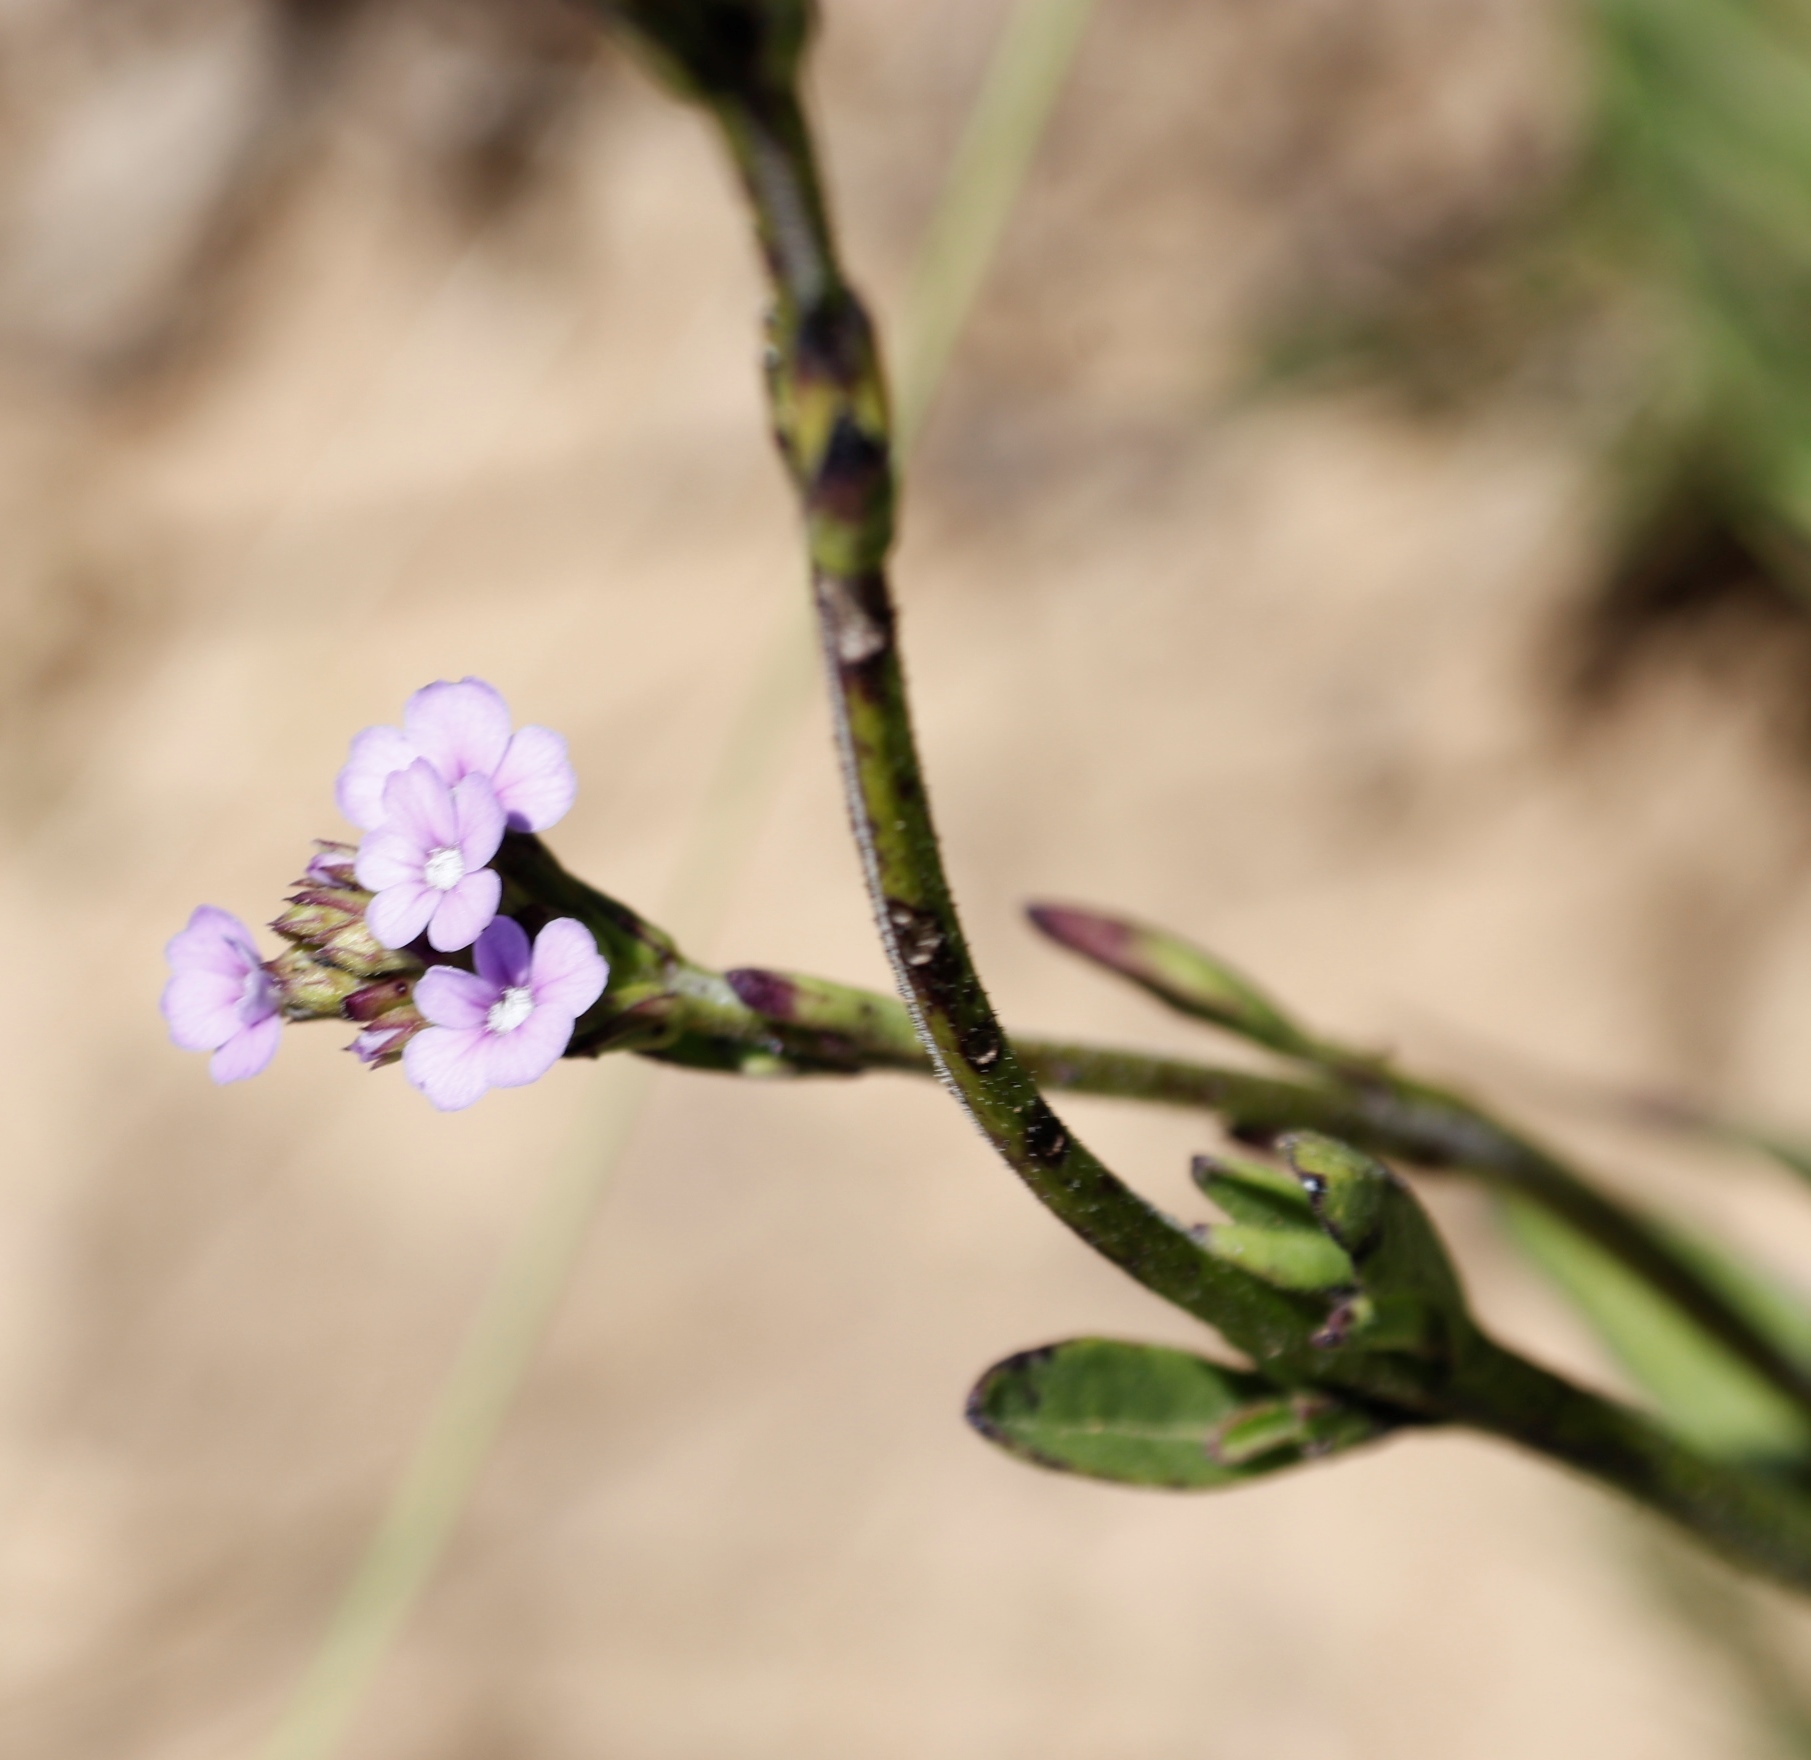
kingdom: Plantae
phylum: Tracheophyta
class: Magnoliopsida
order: Lamiales
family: Orobanchaceae
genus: Buchnera
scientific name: Buchnera simplex
